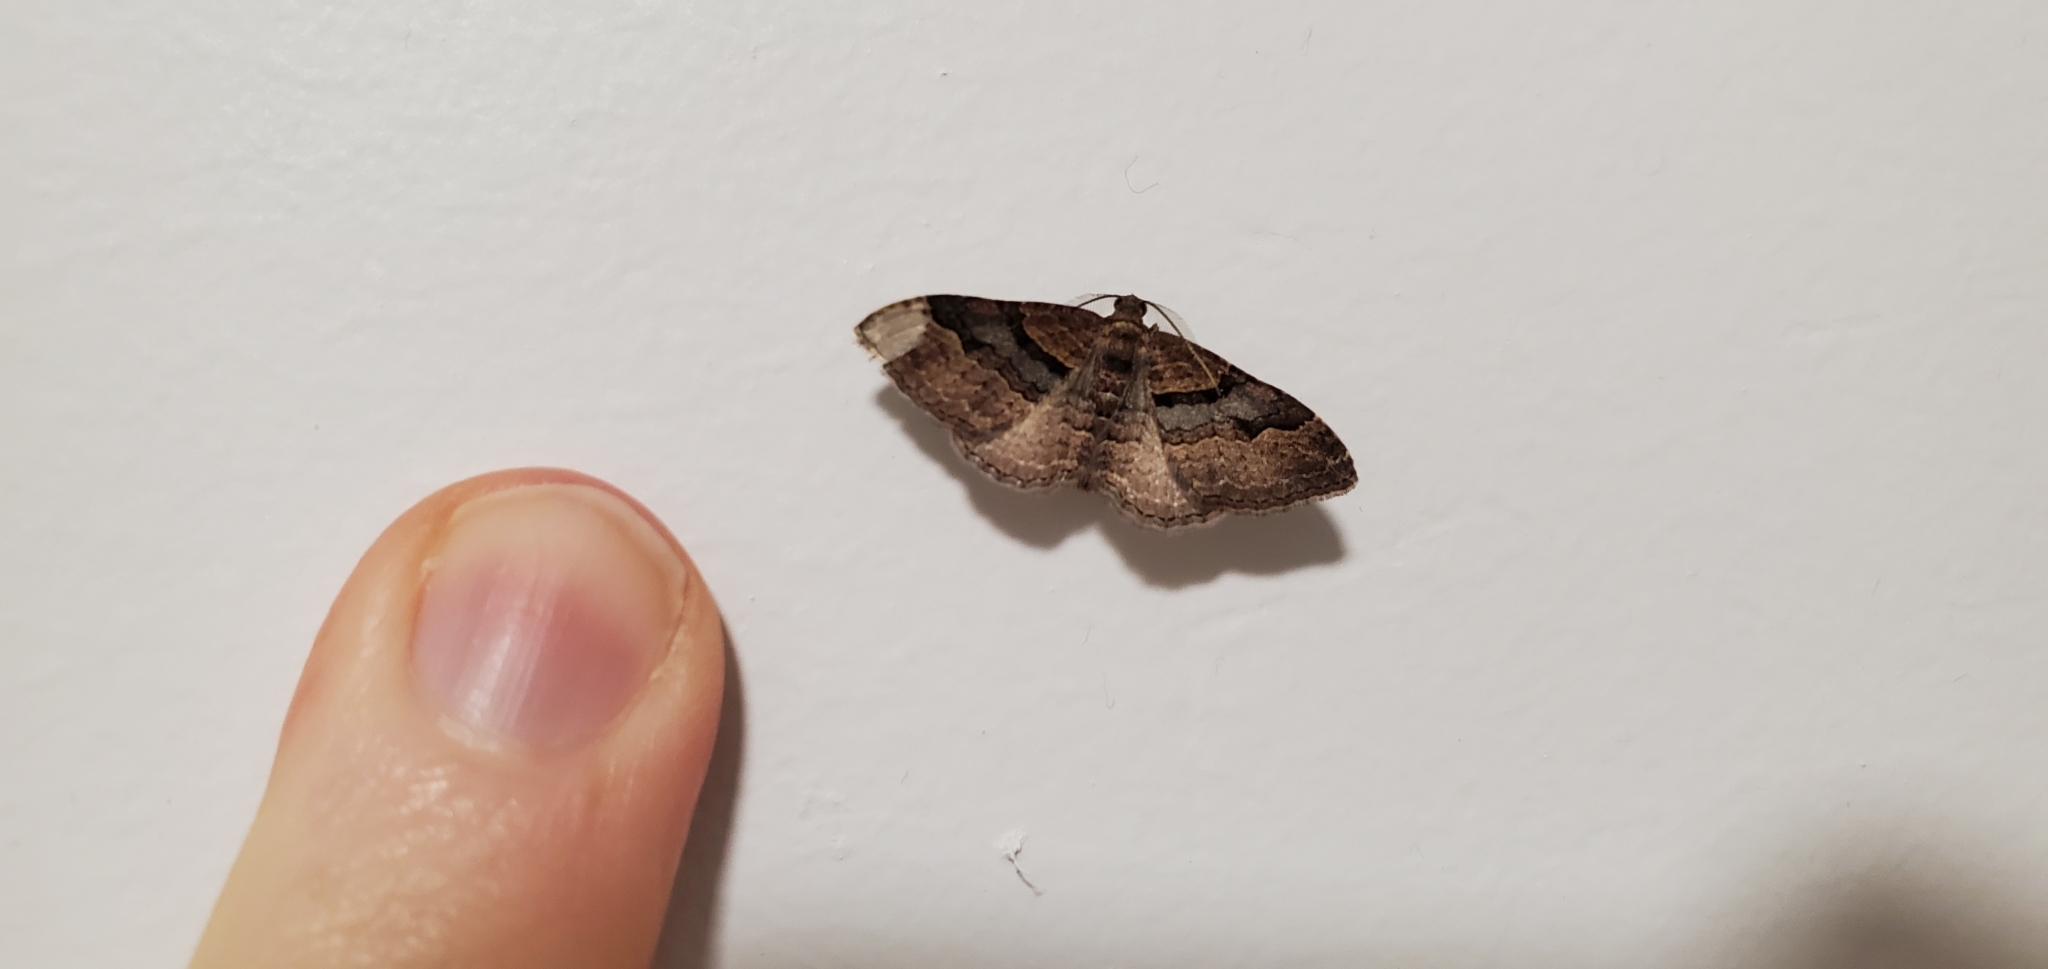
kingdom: Animalia
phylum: Arthropoda
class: Insecta
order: Lepidoptera
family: Geometridae
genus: Epyaxa
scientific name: Epyaxa lucidata
